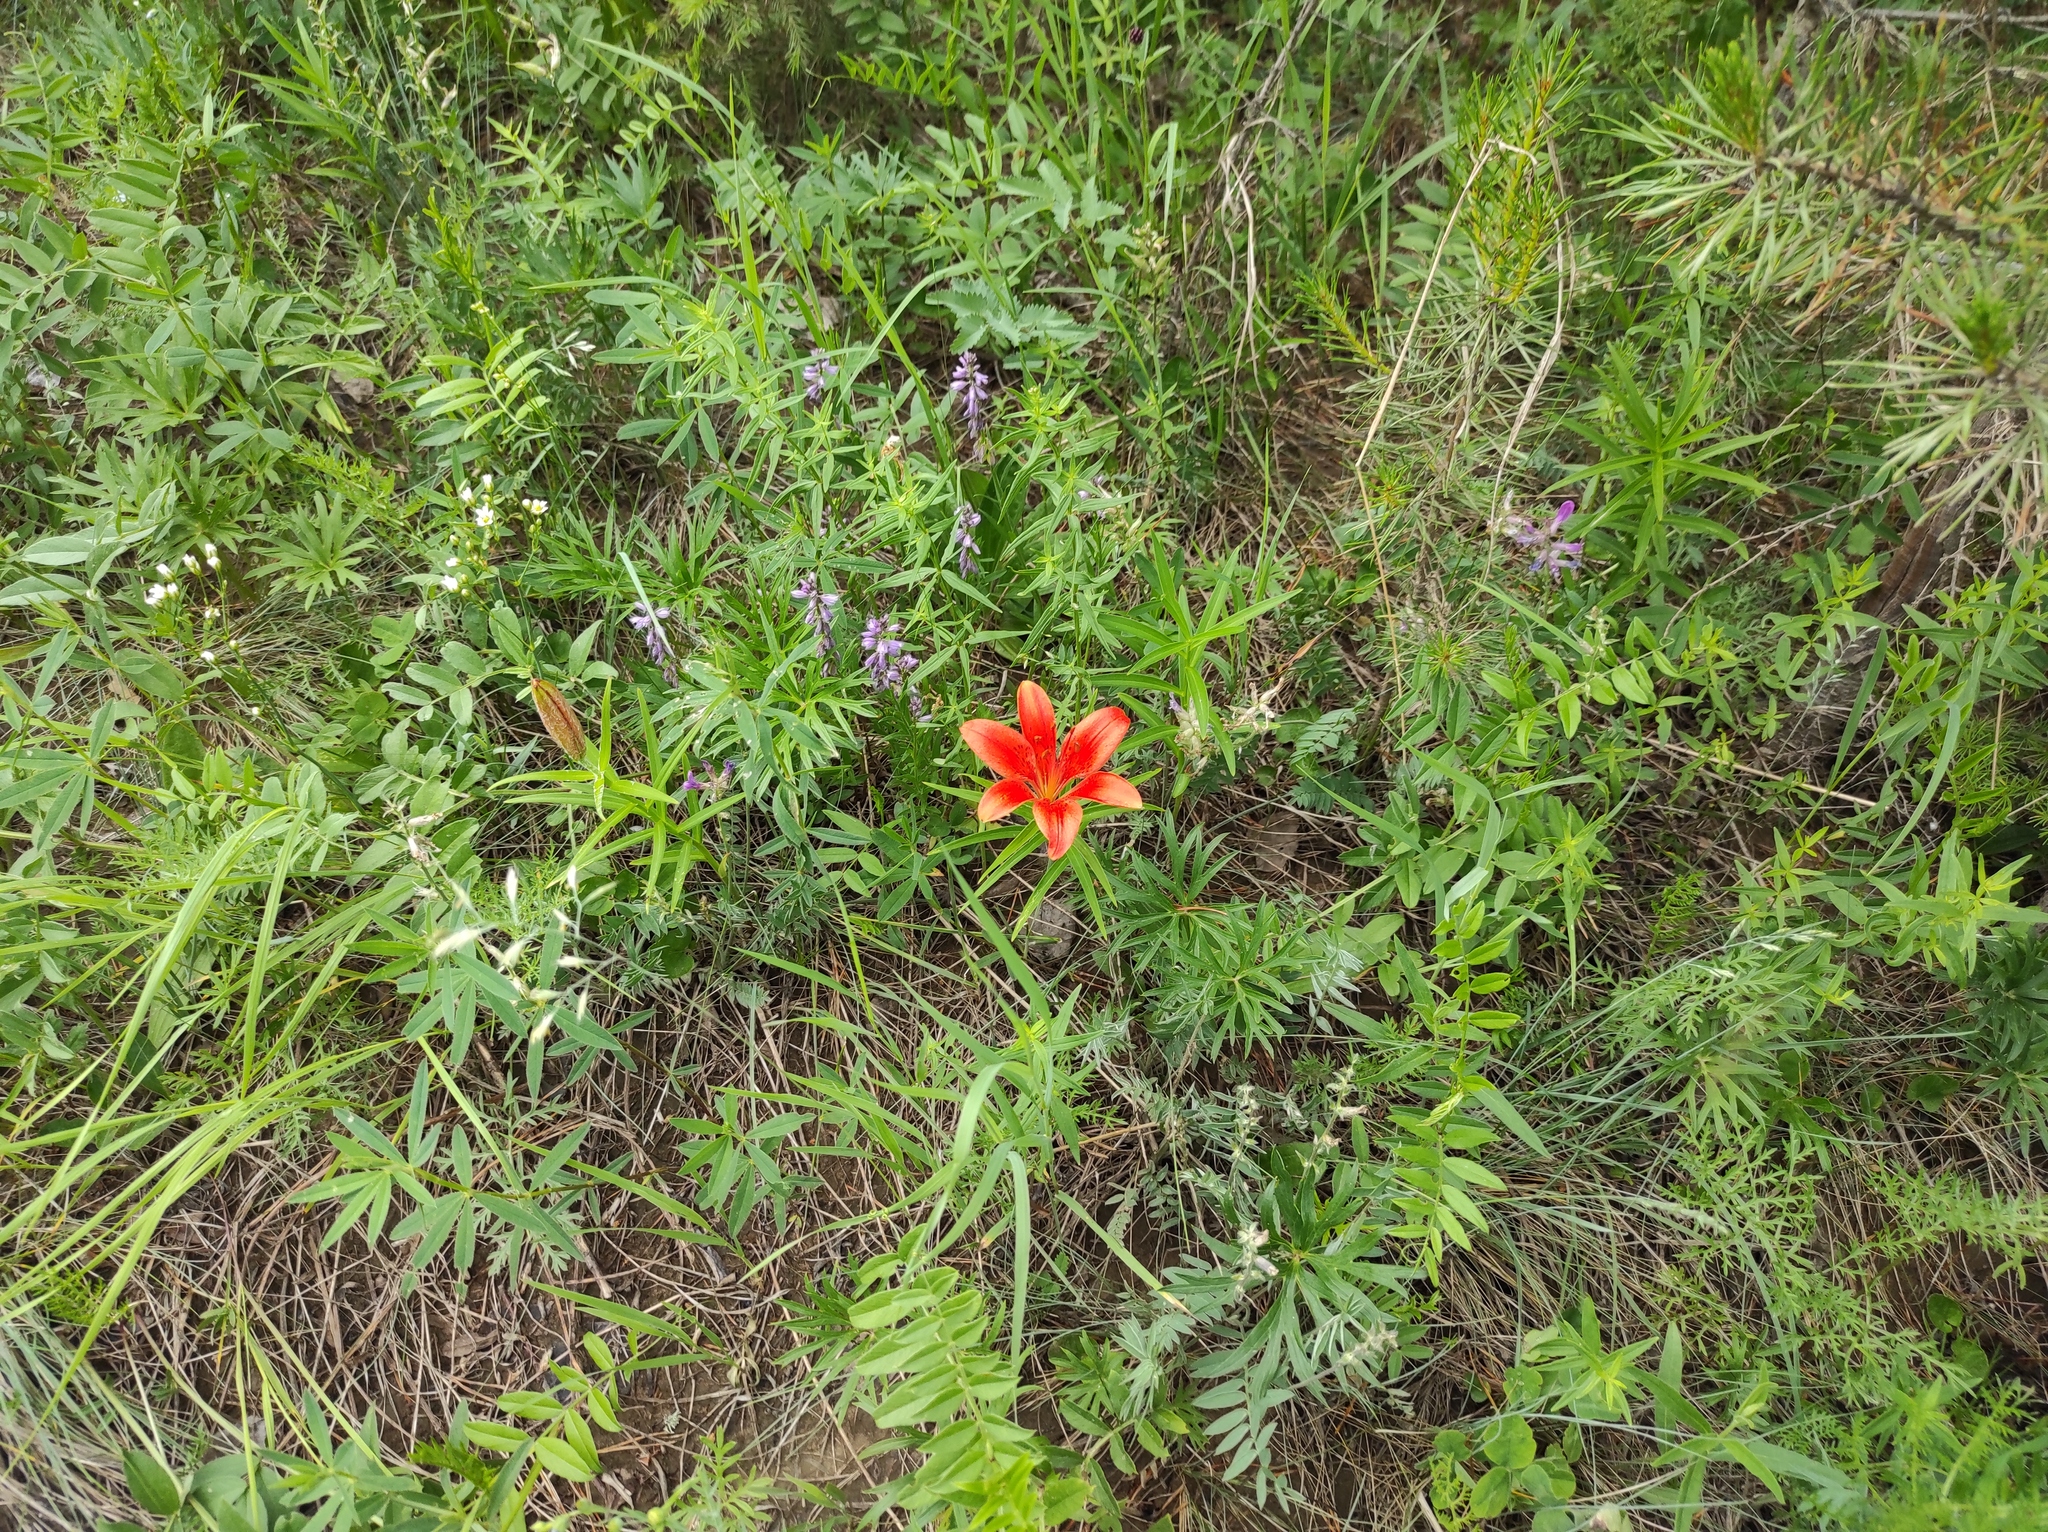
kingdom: Plantae
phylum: Tracheophyta
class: Liliopsida
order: Liliales
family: Liliaceae
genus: Lilium
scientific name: Lilium pensylvanicum
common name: Candlestick lily
